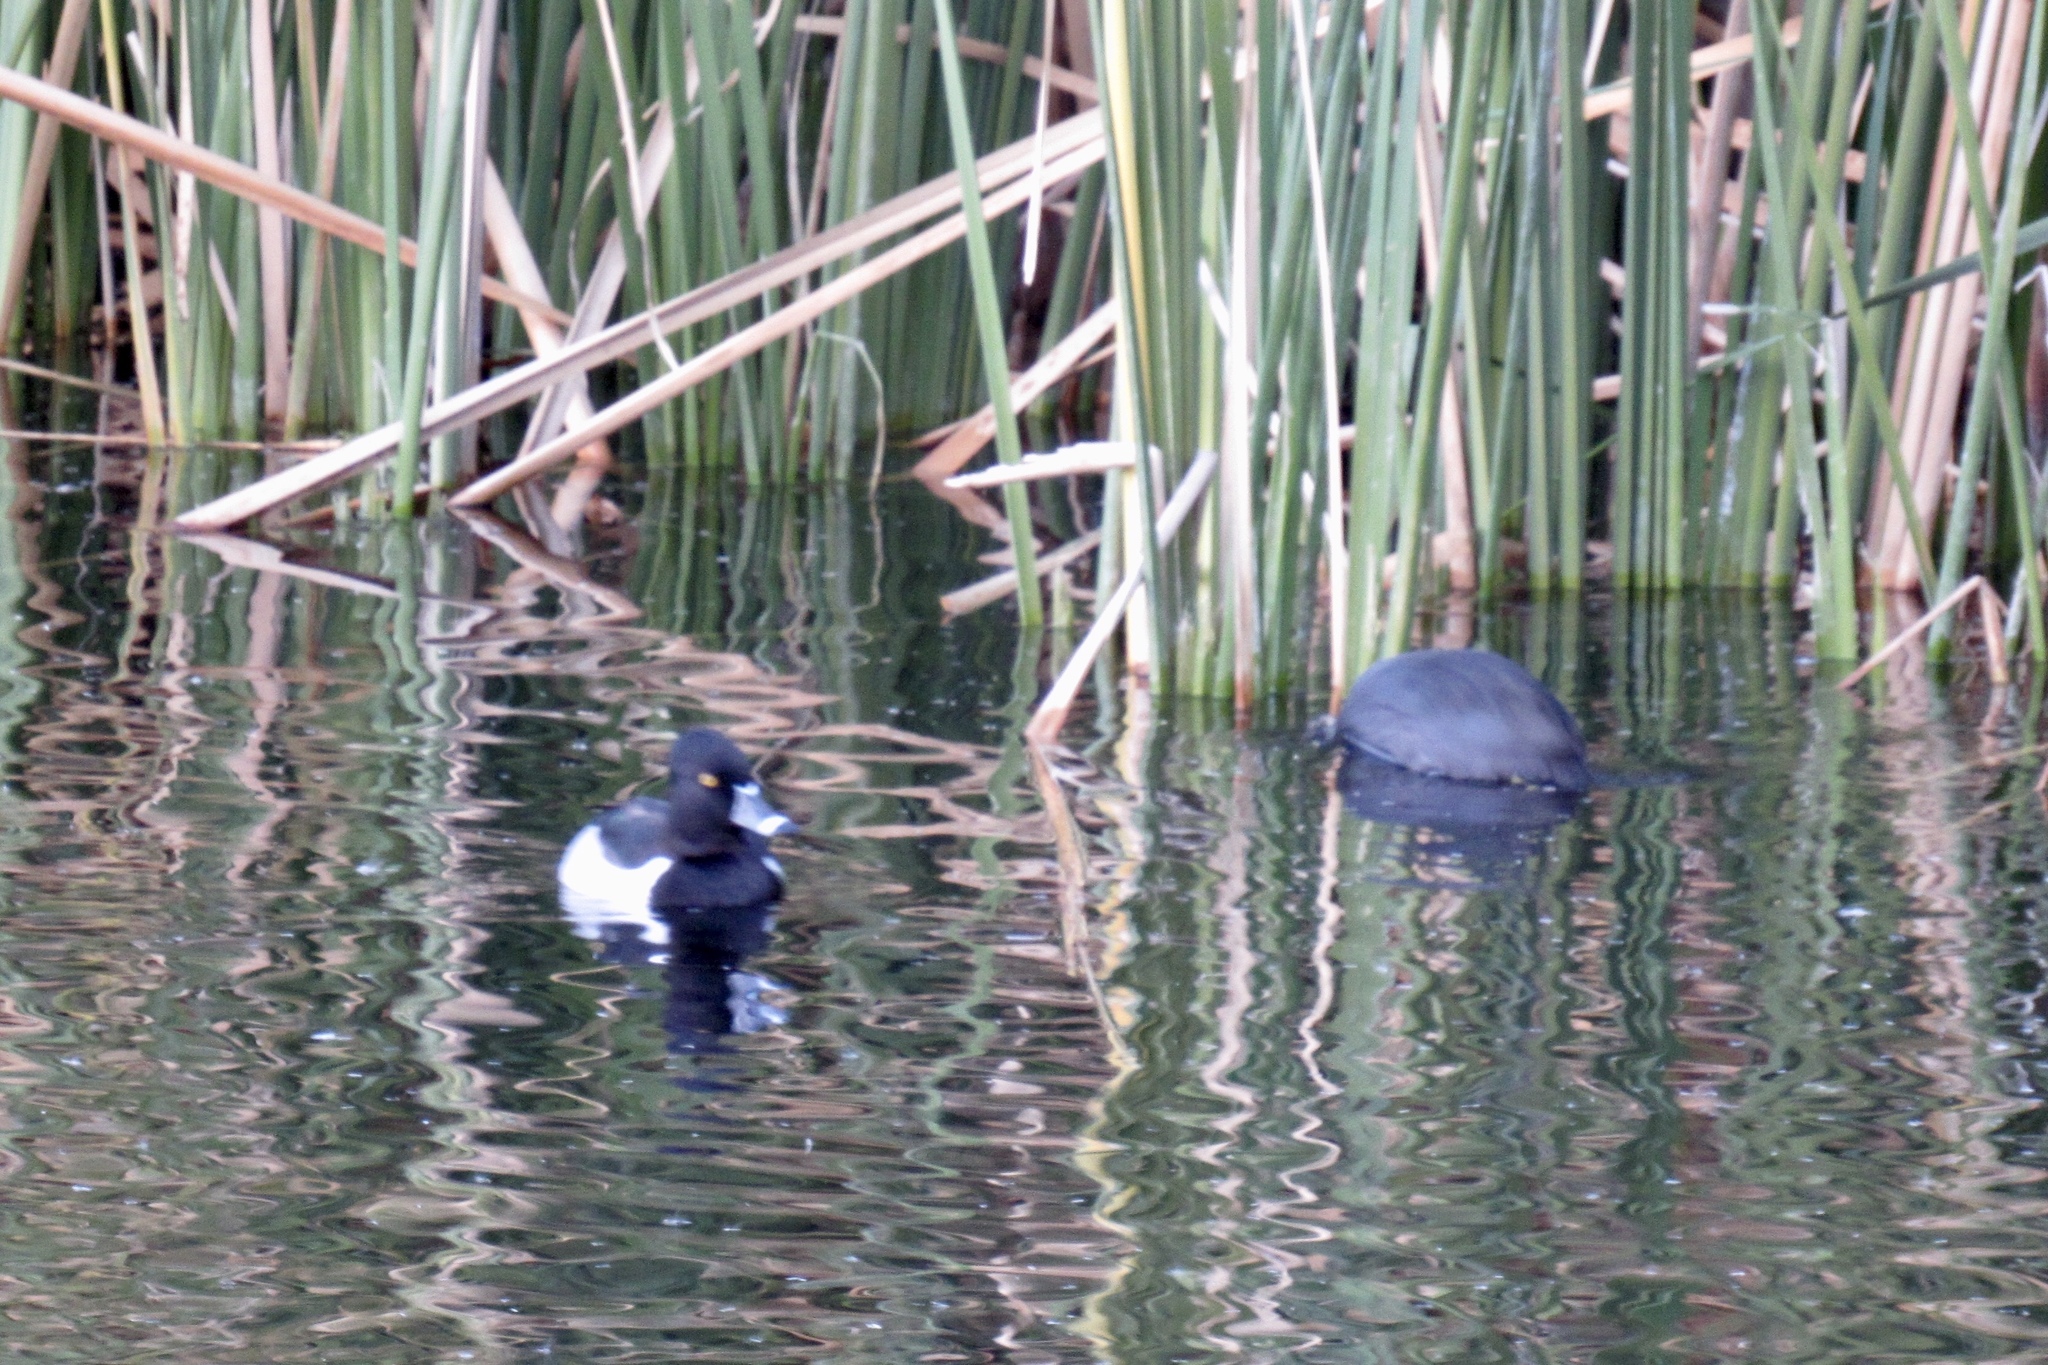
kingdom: Animalia
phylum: Chordata
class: Aves
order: Anseriformes
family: Anatidae
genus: Aythya
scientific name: Aythya collaris
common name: Ring-necked duck
